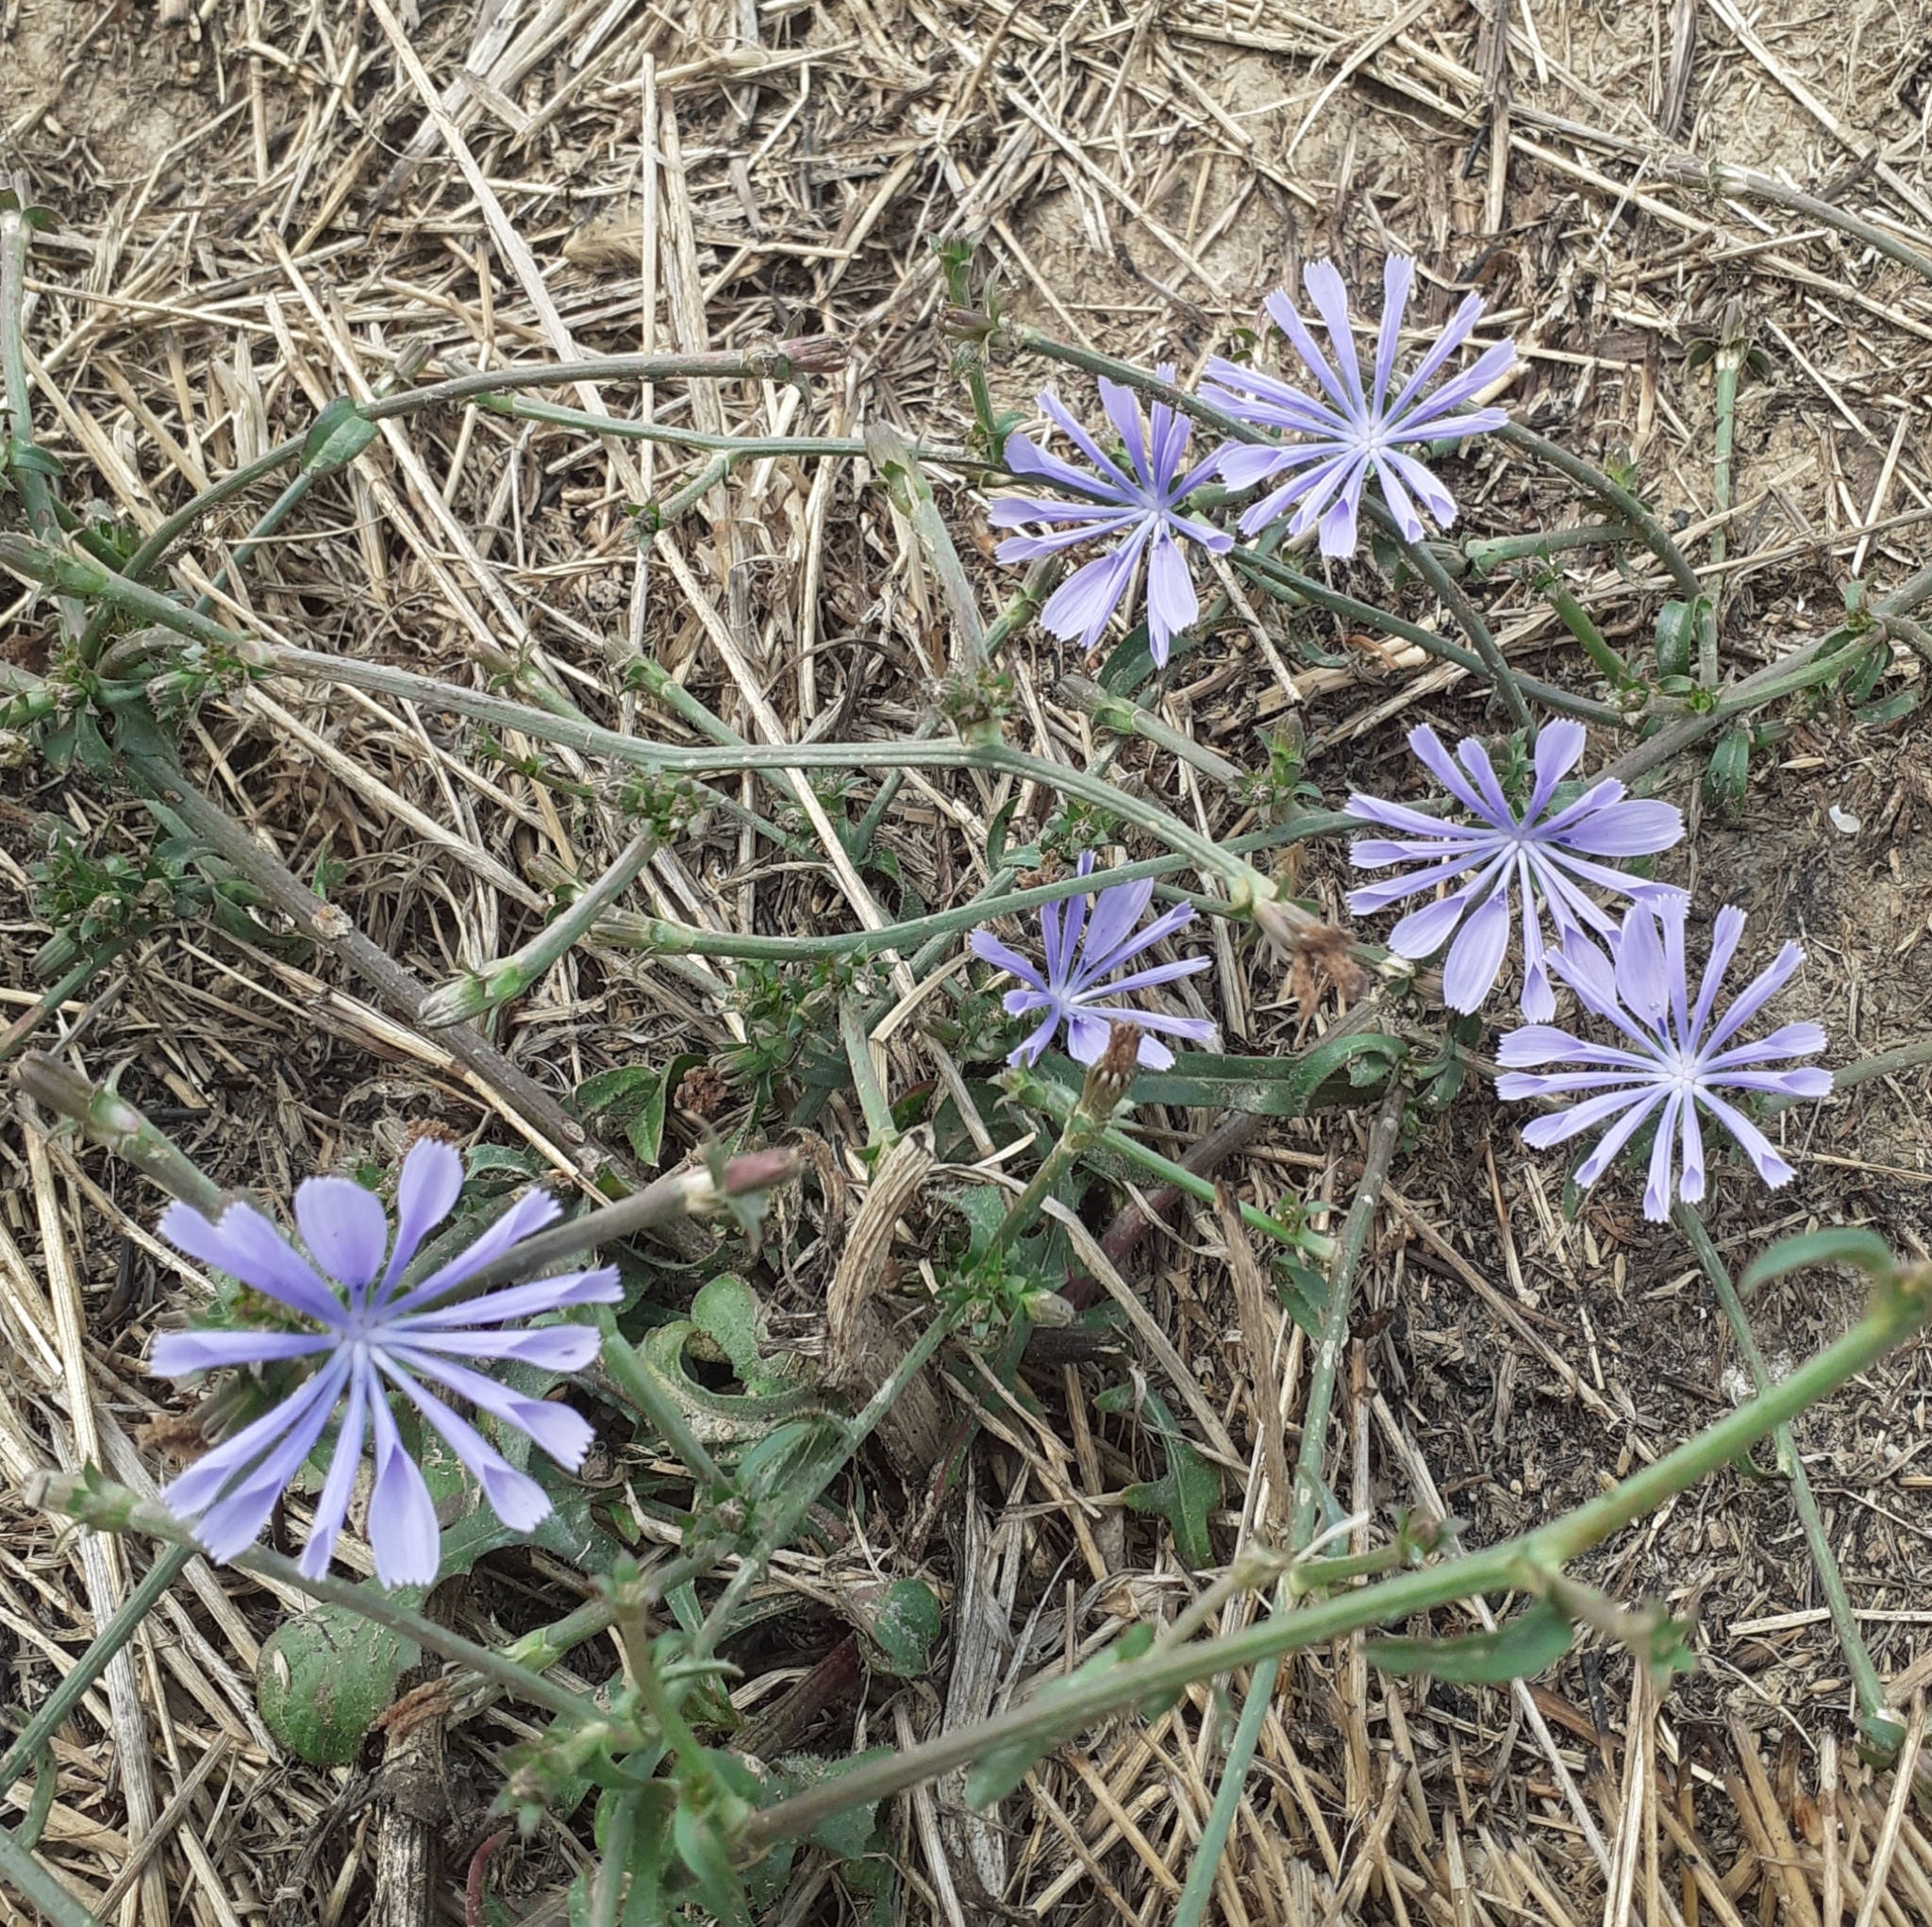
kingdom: Plantae
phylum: Tracheophyta
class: Magnoliopsida
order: Asterales
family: Asteraceae
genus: Cichorium
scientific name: Cichorium intybus
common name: Chicory
